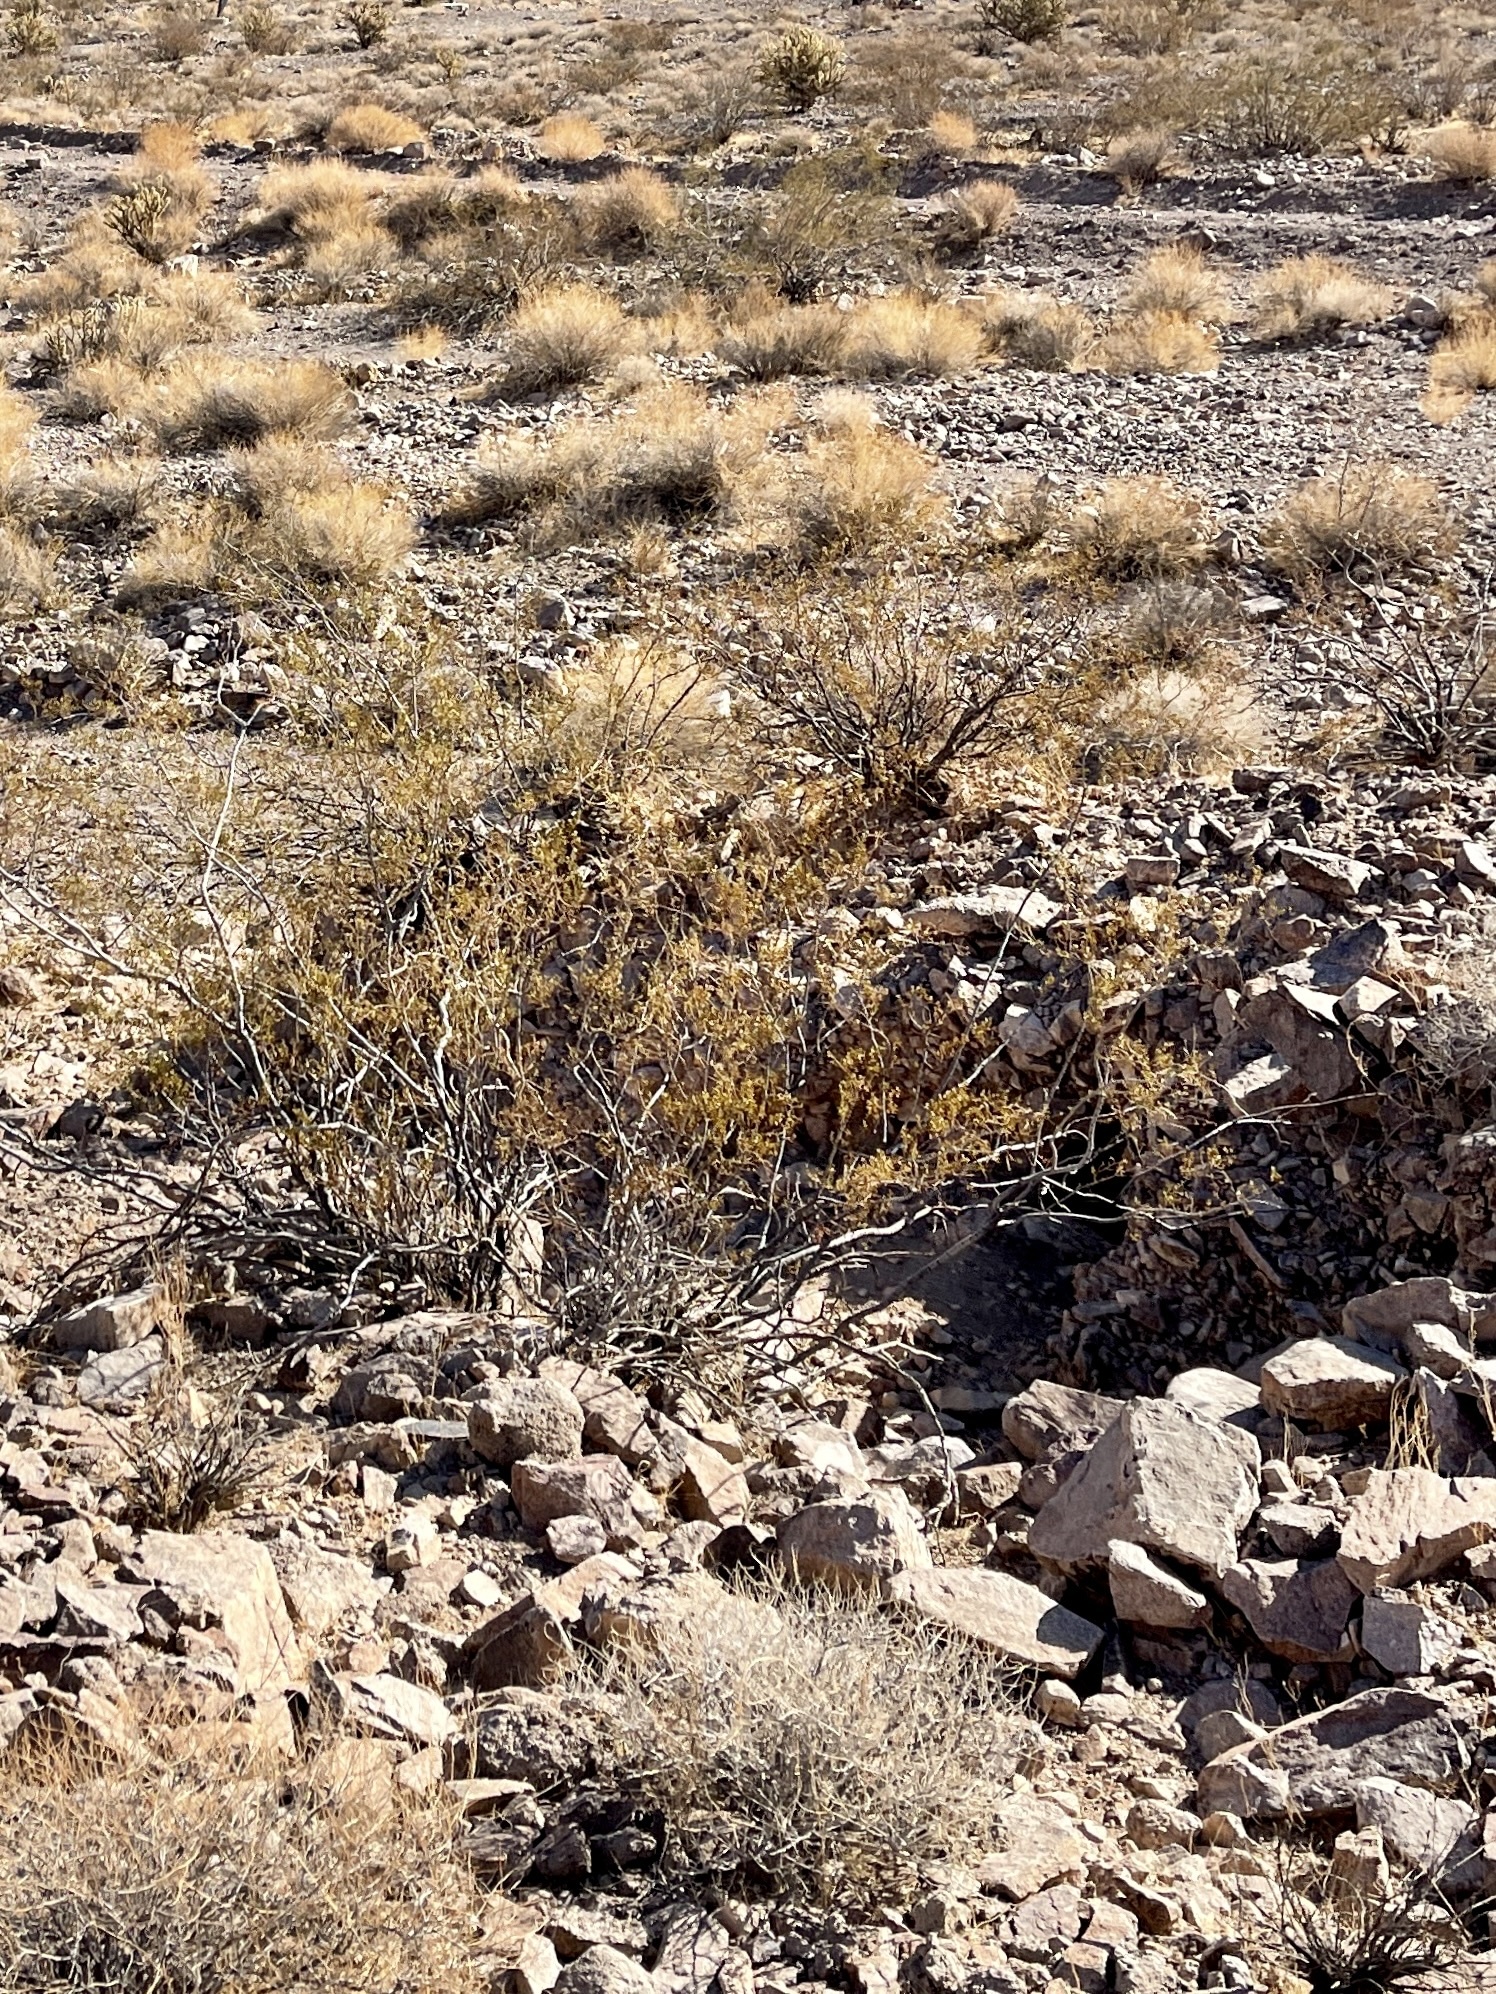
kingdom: Plantae
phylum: Tracheophyta
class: Magnoliopsida
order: Zygophyllales
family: Zygophyllaceae
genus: Larrea
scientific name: Larrea tridentata
